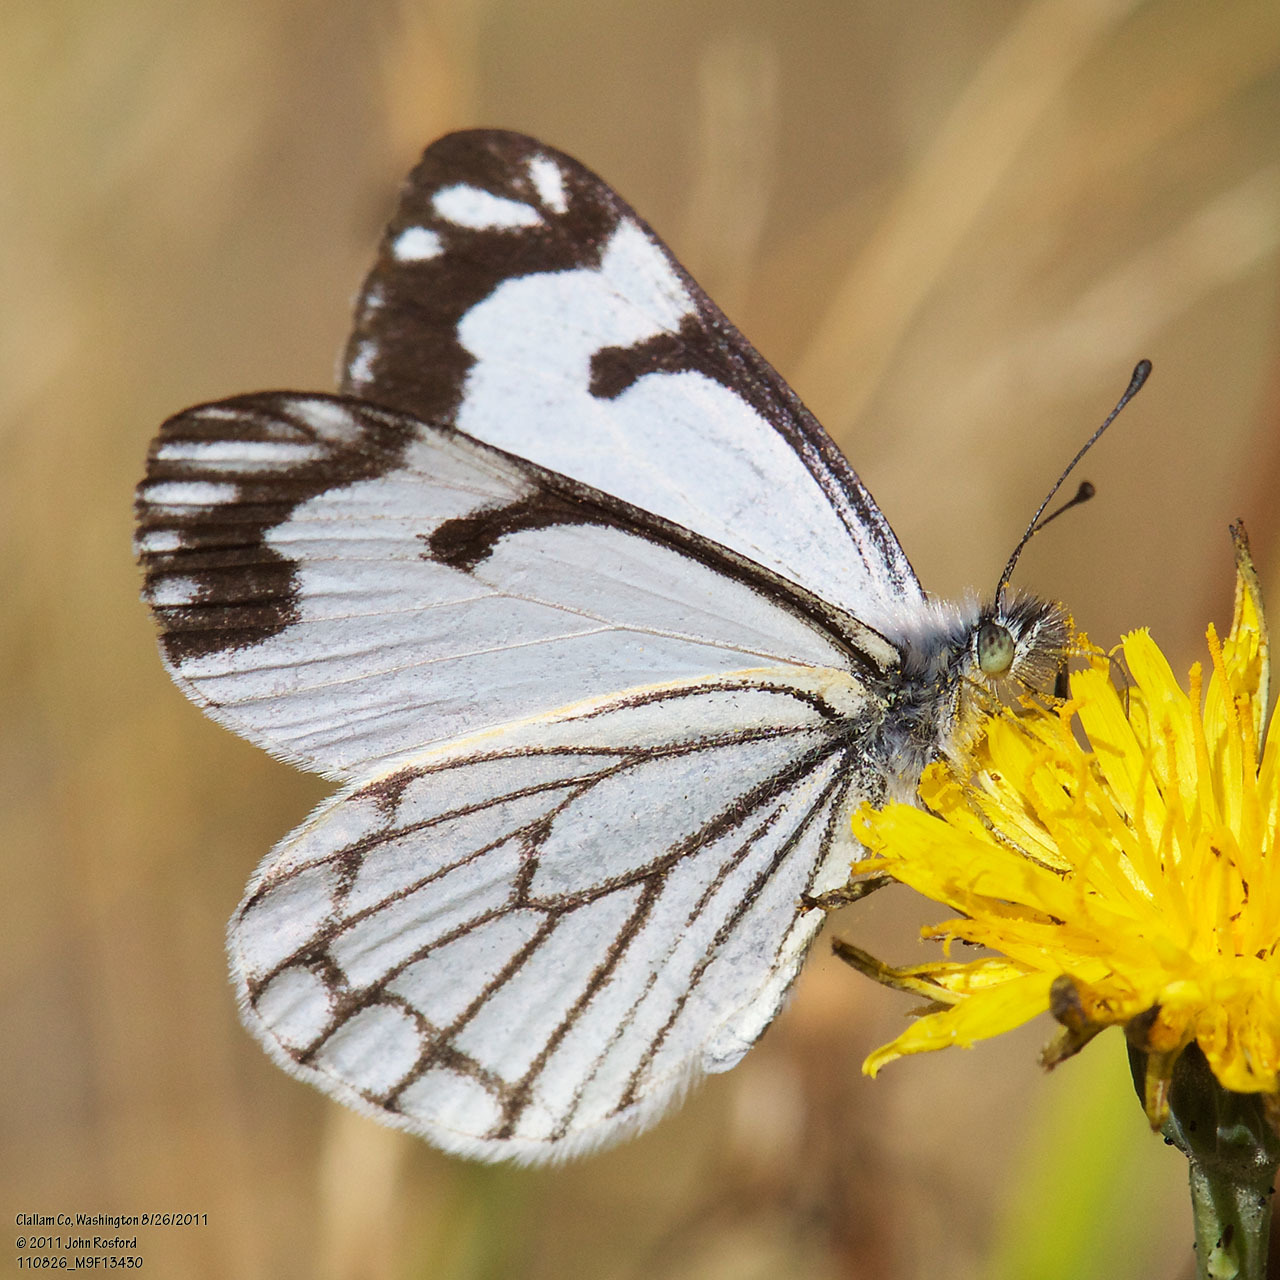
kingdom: Animalia
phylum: Arthropoda
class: Insecta
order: Lepidoptera
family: Pieridae
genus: Neophasia
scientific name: Neophasia menapia
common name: Pine white
